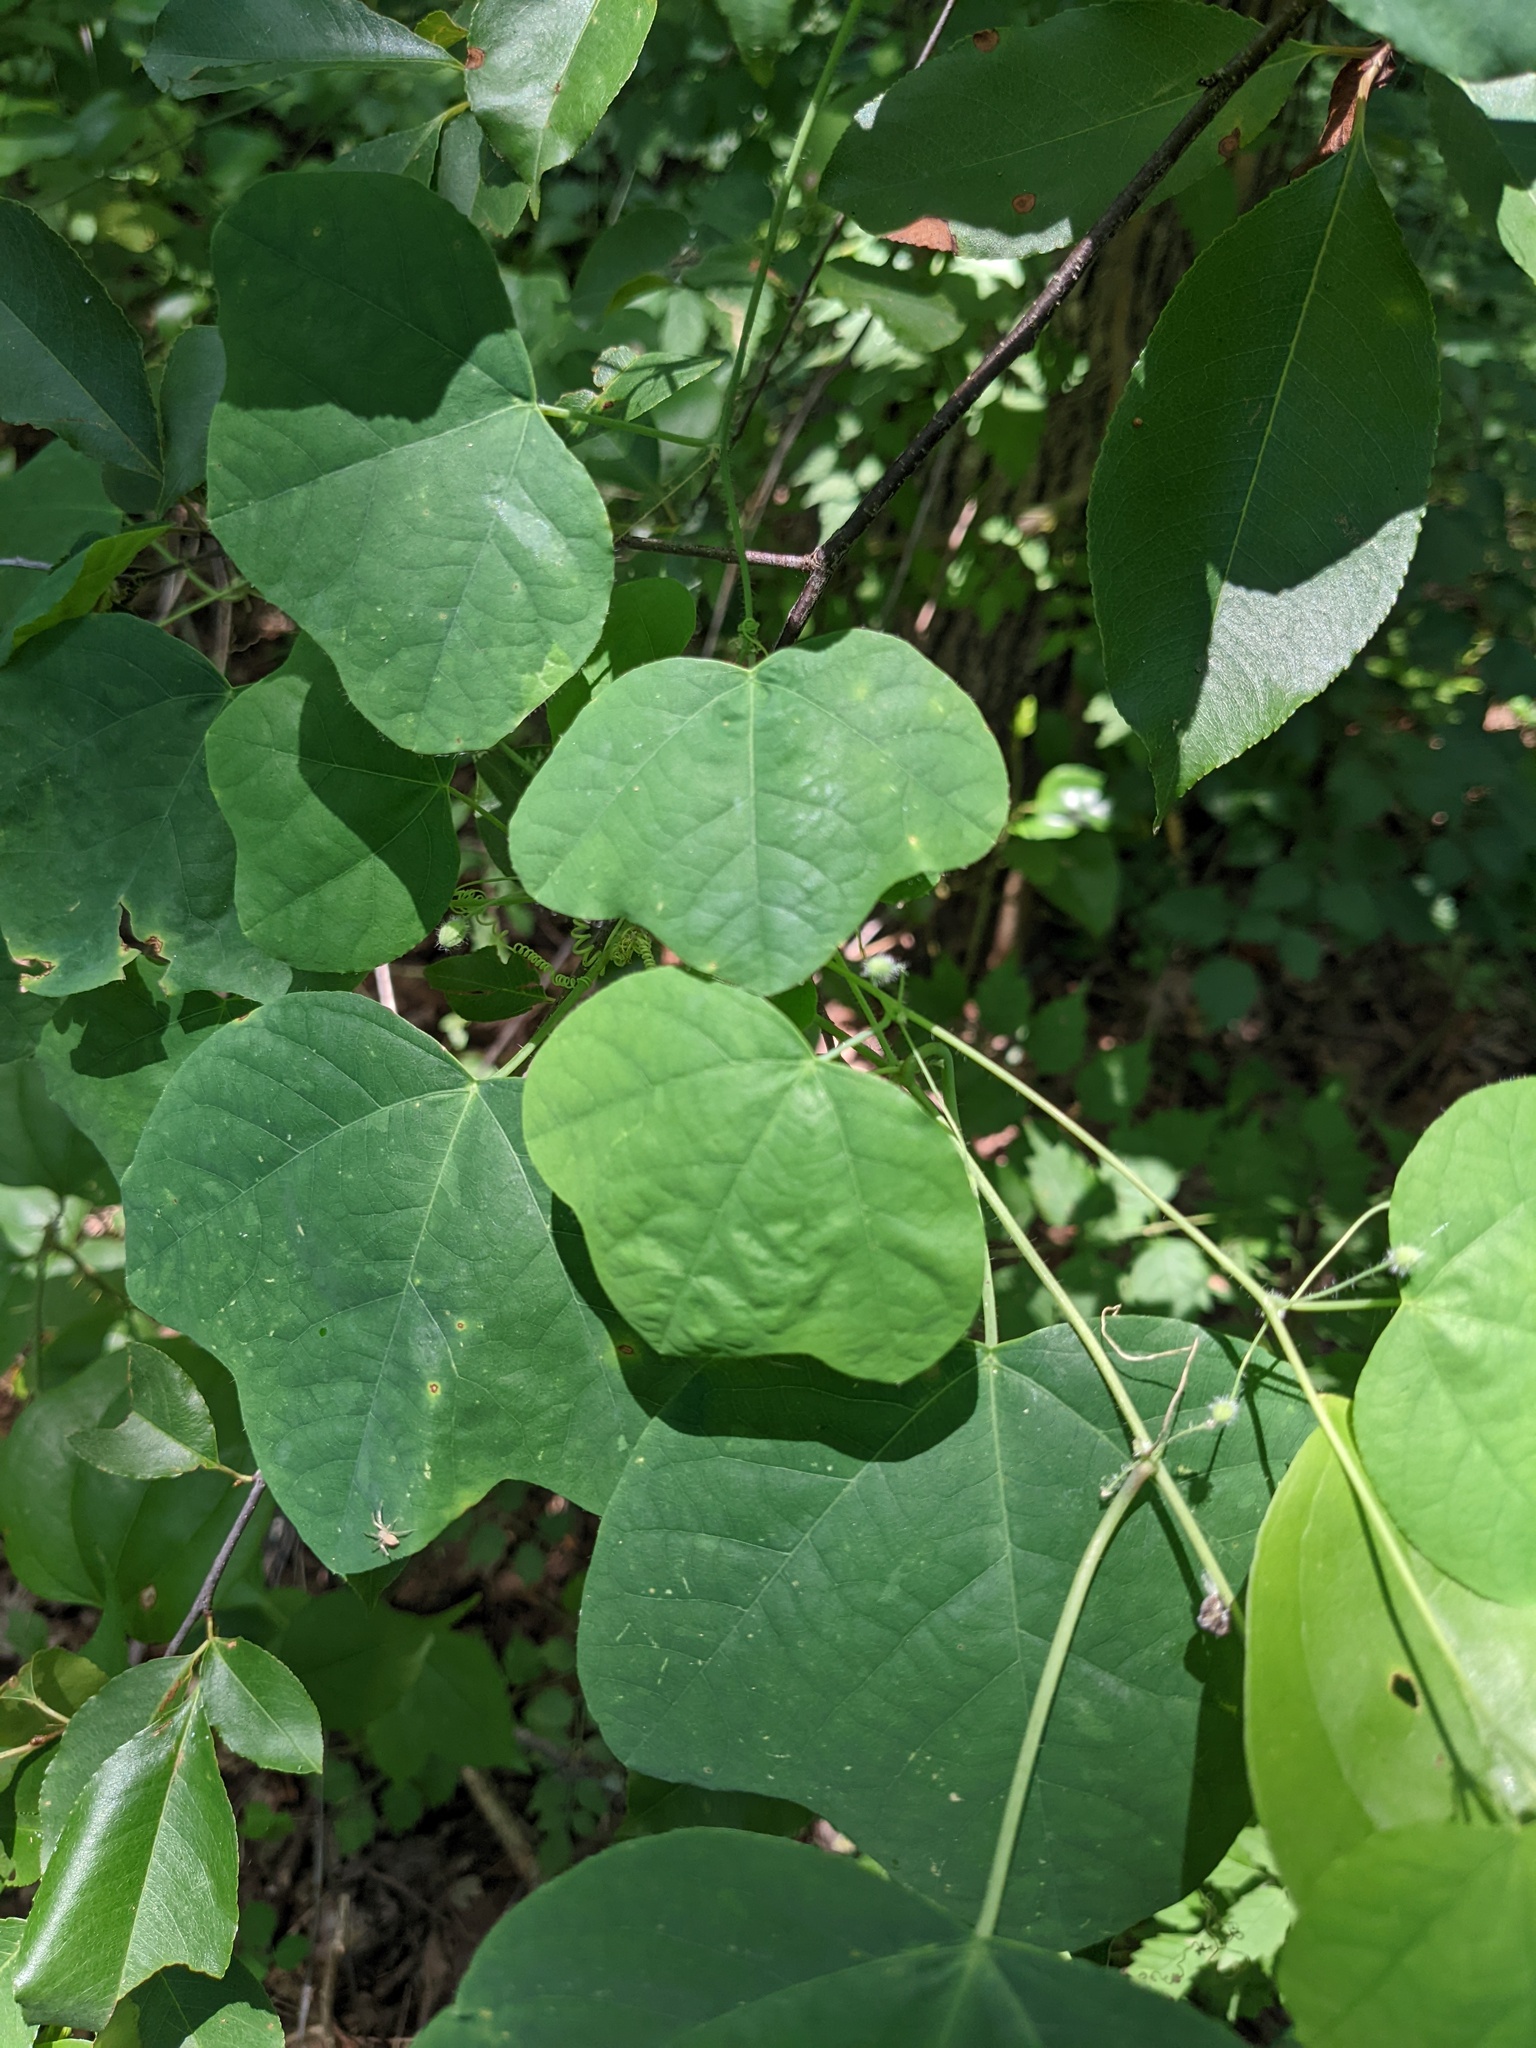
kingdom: Plantae
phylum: Tracheophyta
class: Magnoliopsida
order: Malpighiales
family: Passifloraceae
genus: Passiflora
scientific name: Passiflora lutea
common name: Yellow passionflower
